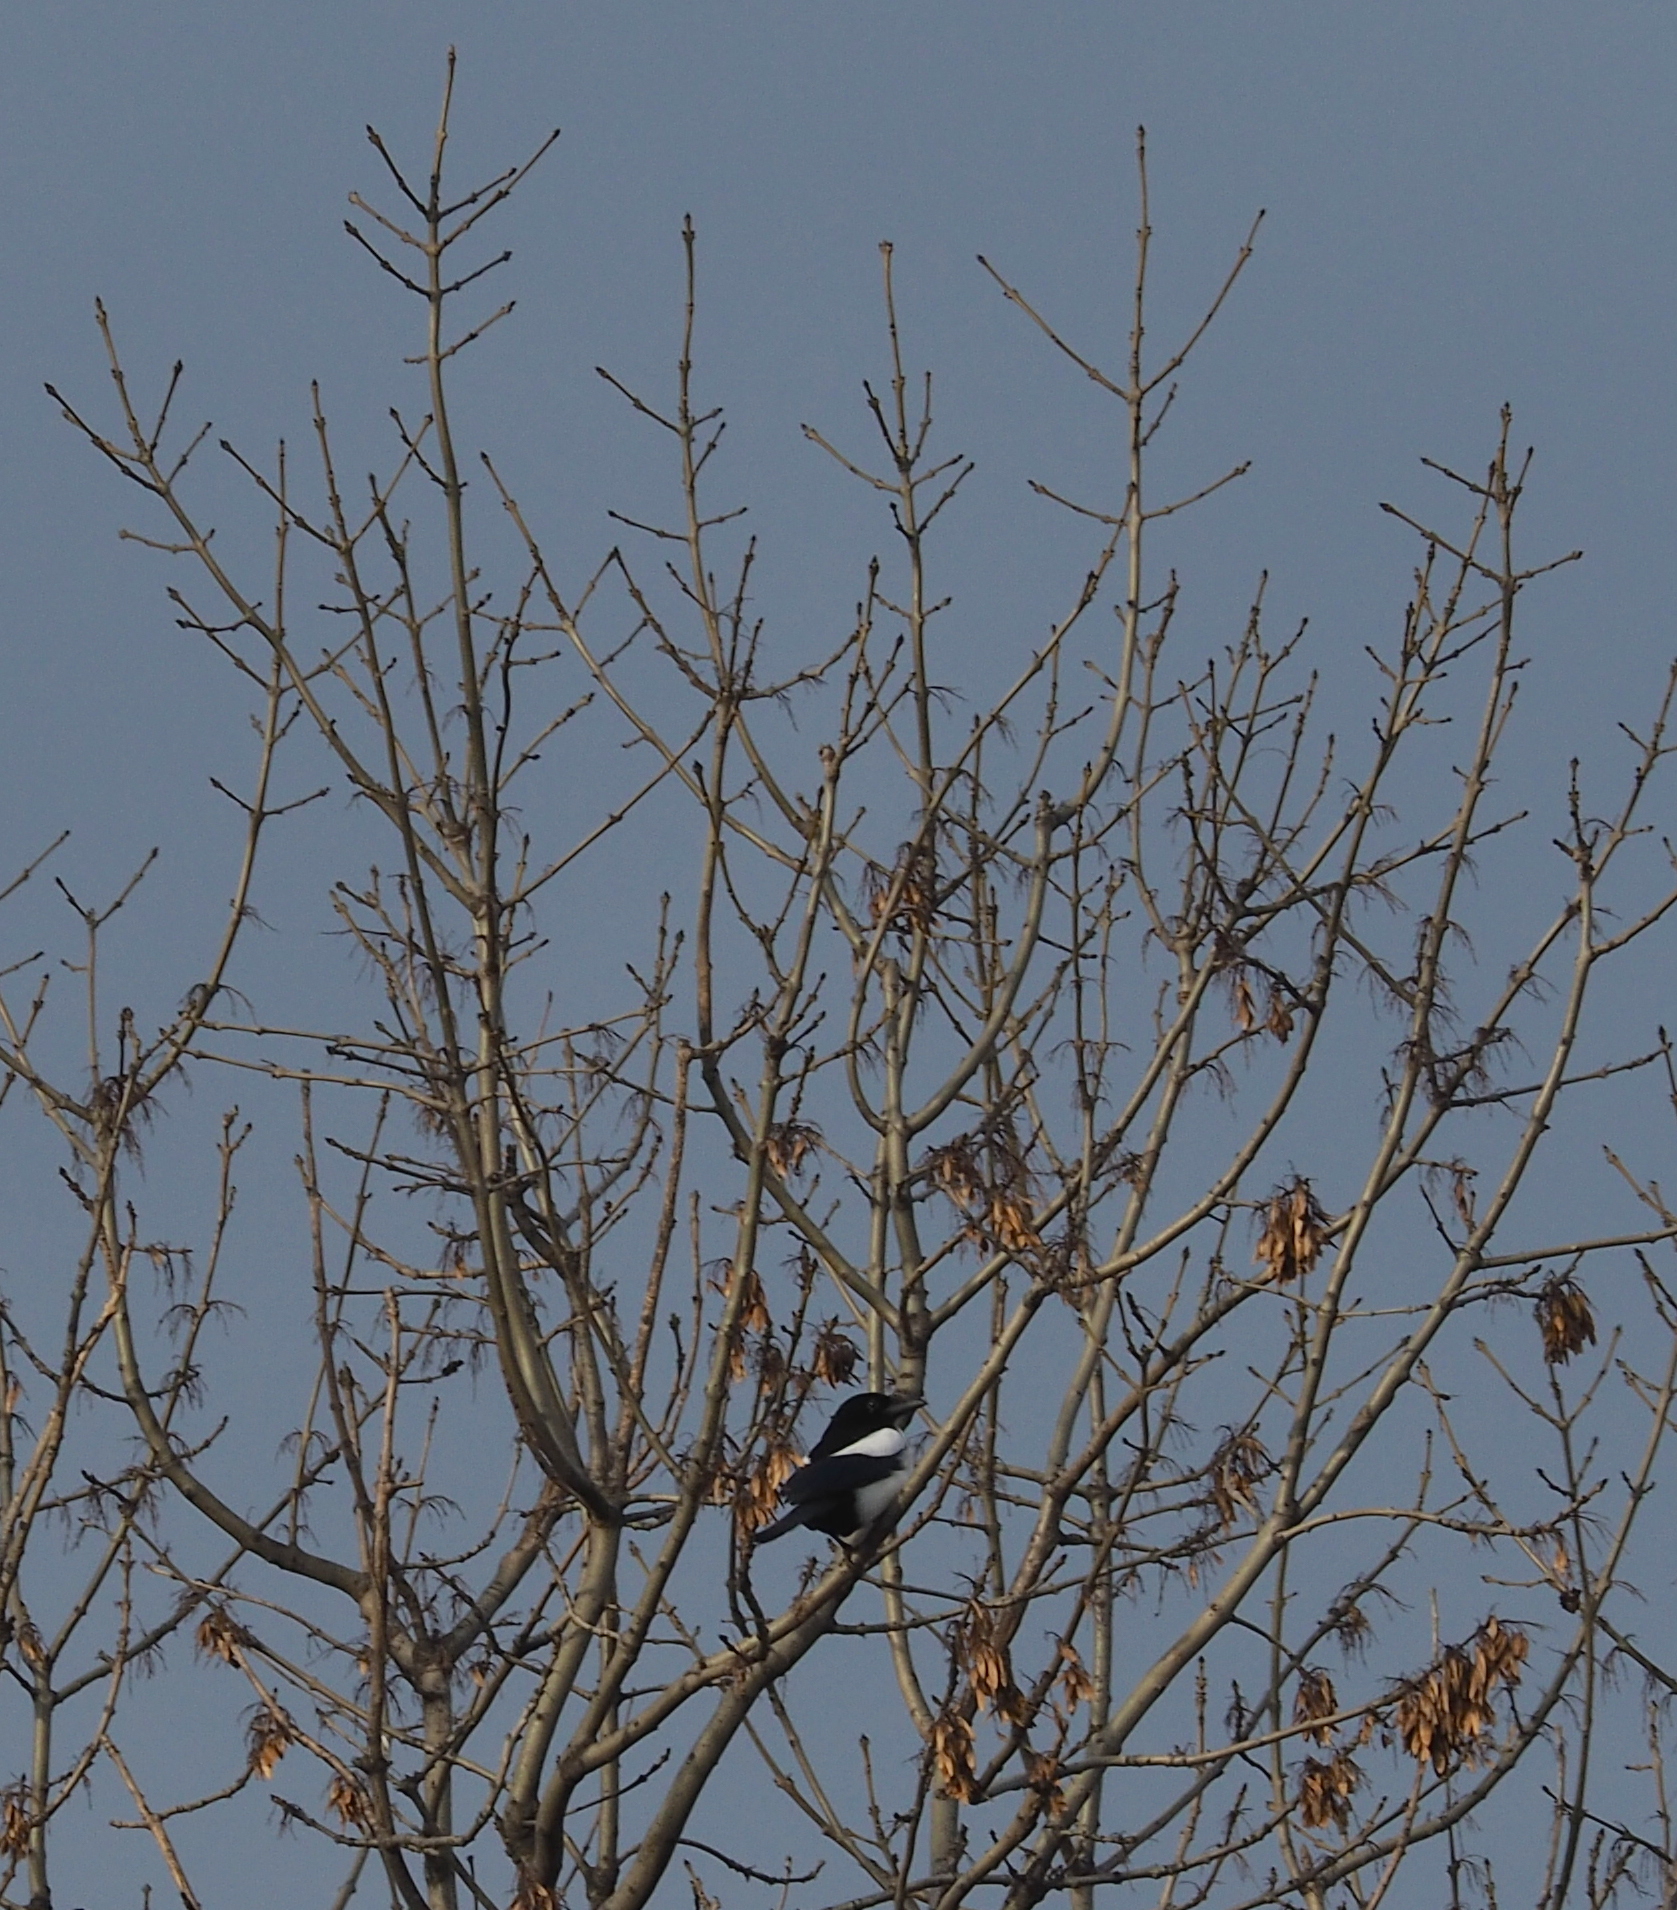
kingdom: Animalia
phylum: Chordata
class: Aves
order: Passeriformes
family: Corvidae
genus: Pica
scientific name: Pica pica
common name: Eurasian magpie
